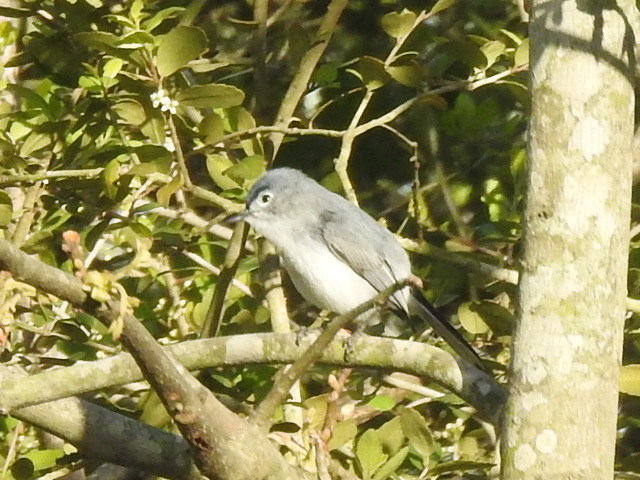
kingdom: Animalia
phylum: Chordata
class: Aves
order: Passeriformes
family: Polioptilidae
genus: Polioptila
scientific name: Polioptila caerulea
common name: Blue-gray gnatcatcher
